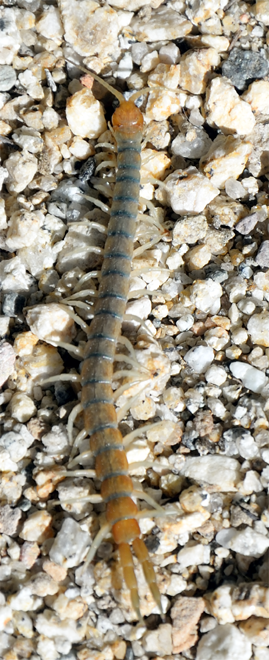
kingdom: Animalia
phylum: Arthropoda
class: Chilopoda
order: Scolopendromorpha
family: Scolopendridae
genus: Scolopendra
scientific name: Scolopendra polymorpha
